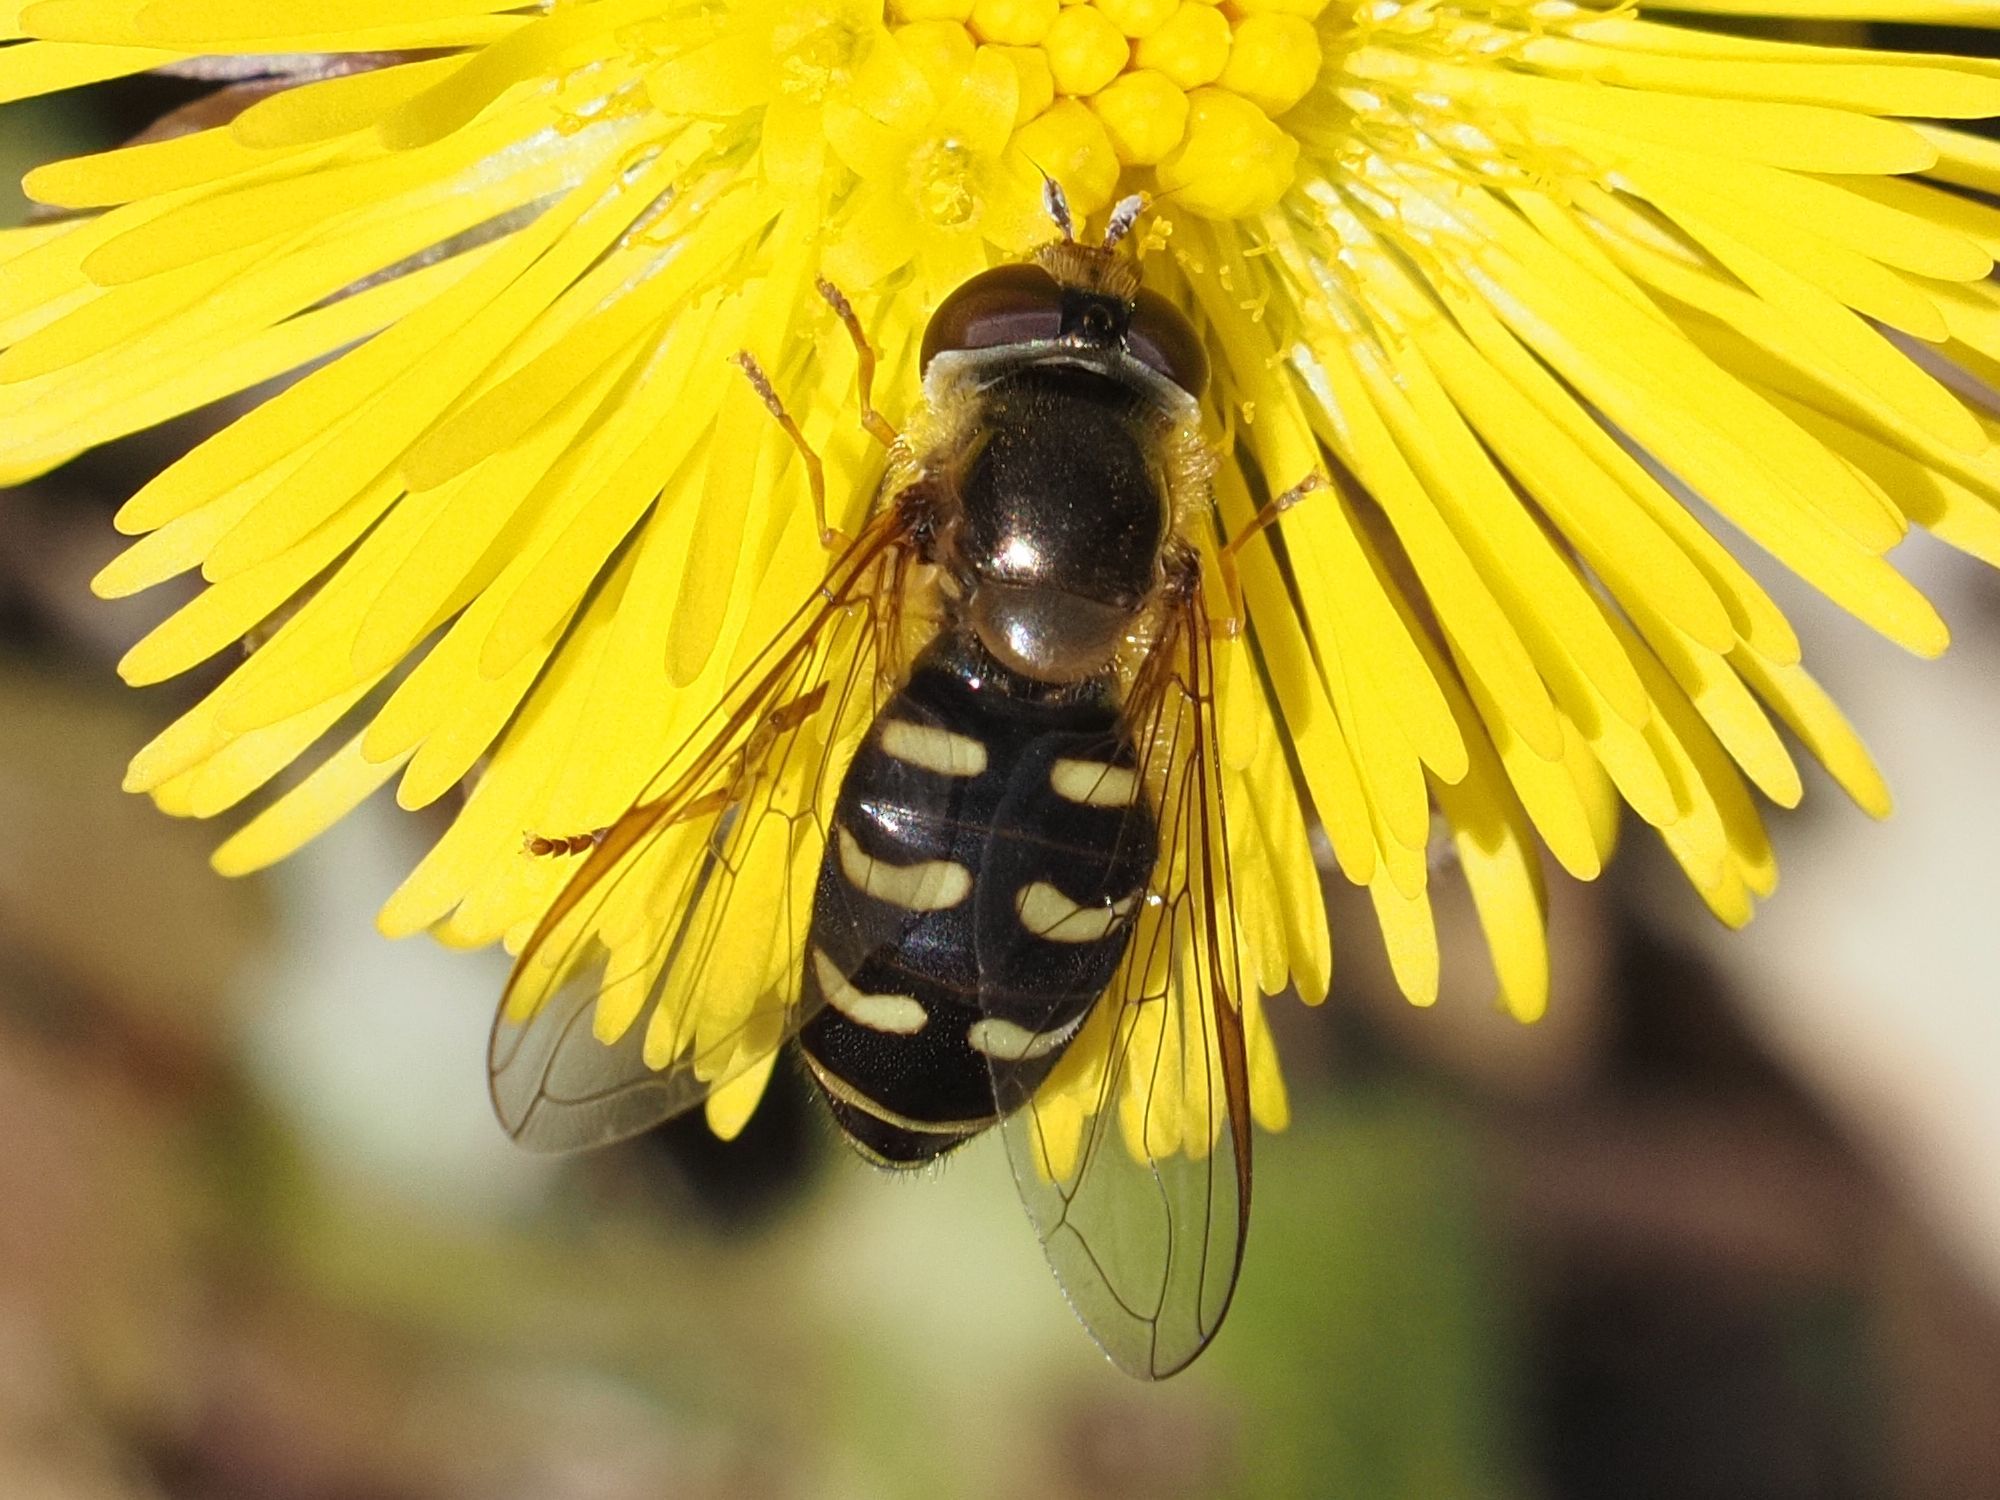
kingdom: Animalia
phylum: Arthropoda
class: Insecta
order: Diptera
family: Syrphidae
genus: Lapposyrphus
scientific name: Lapposyrphus lapponicus
